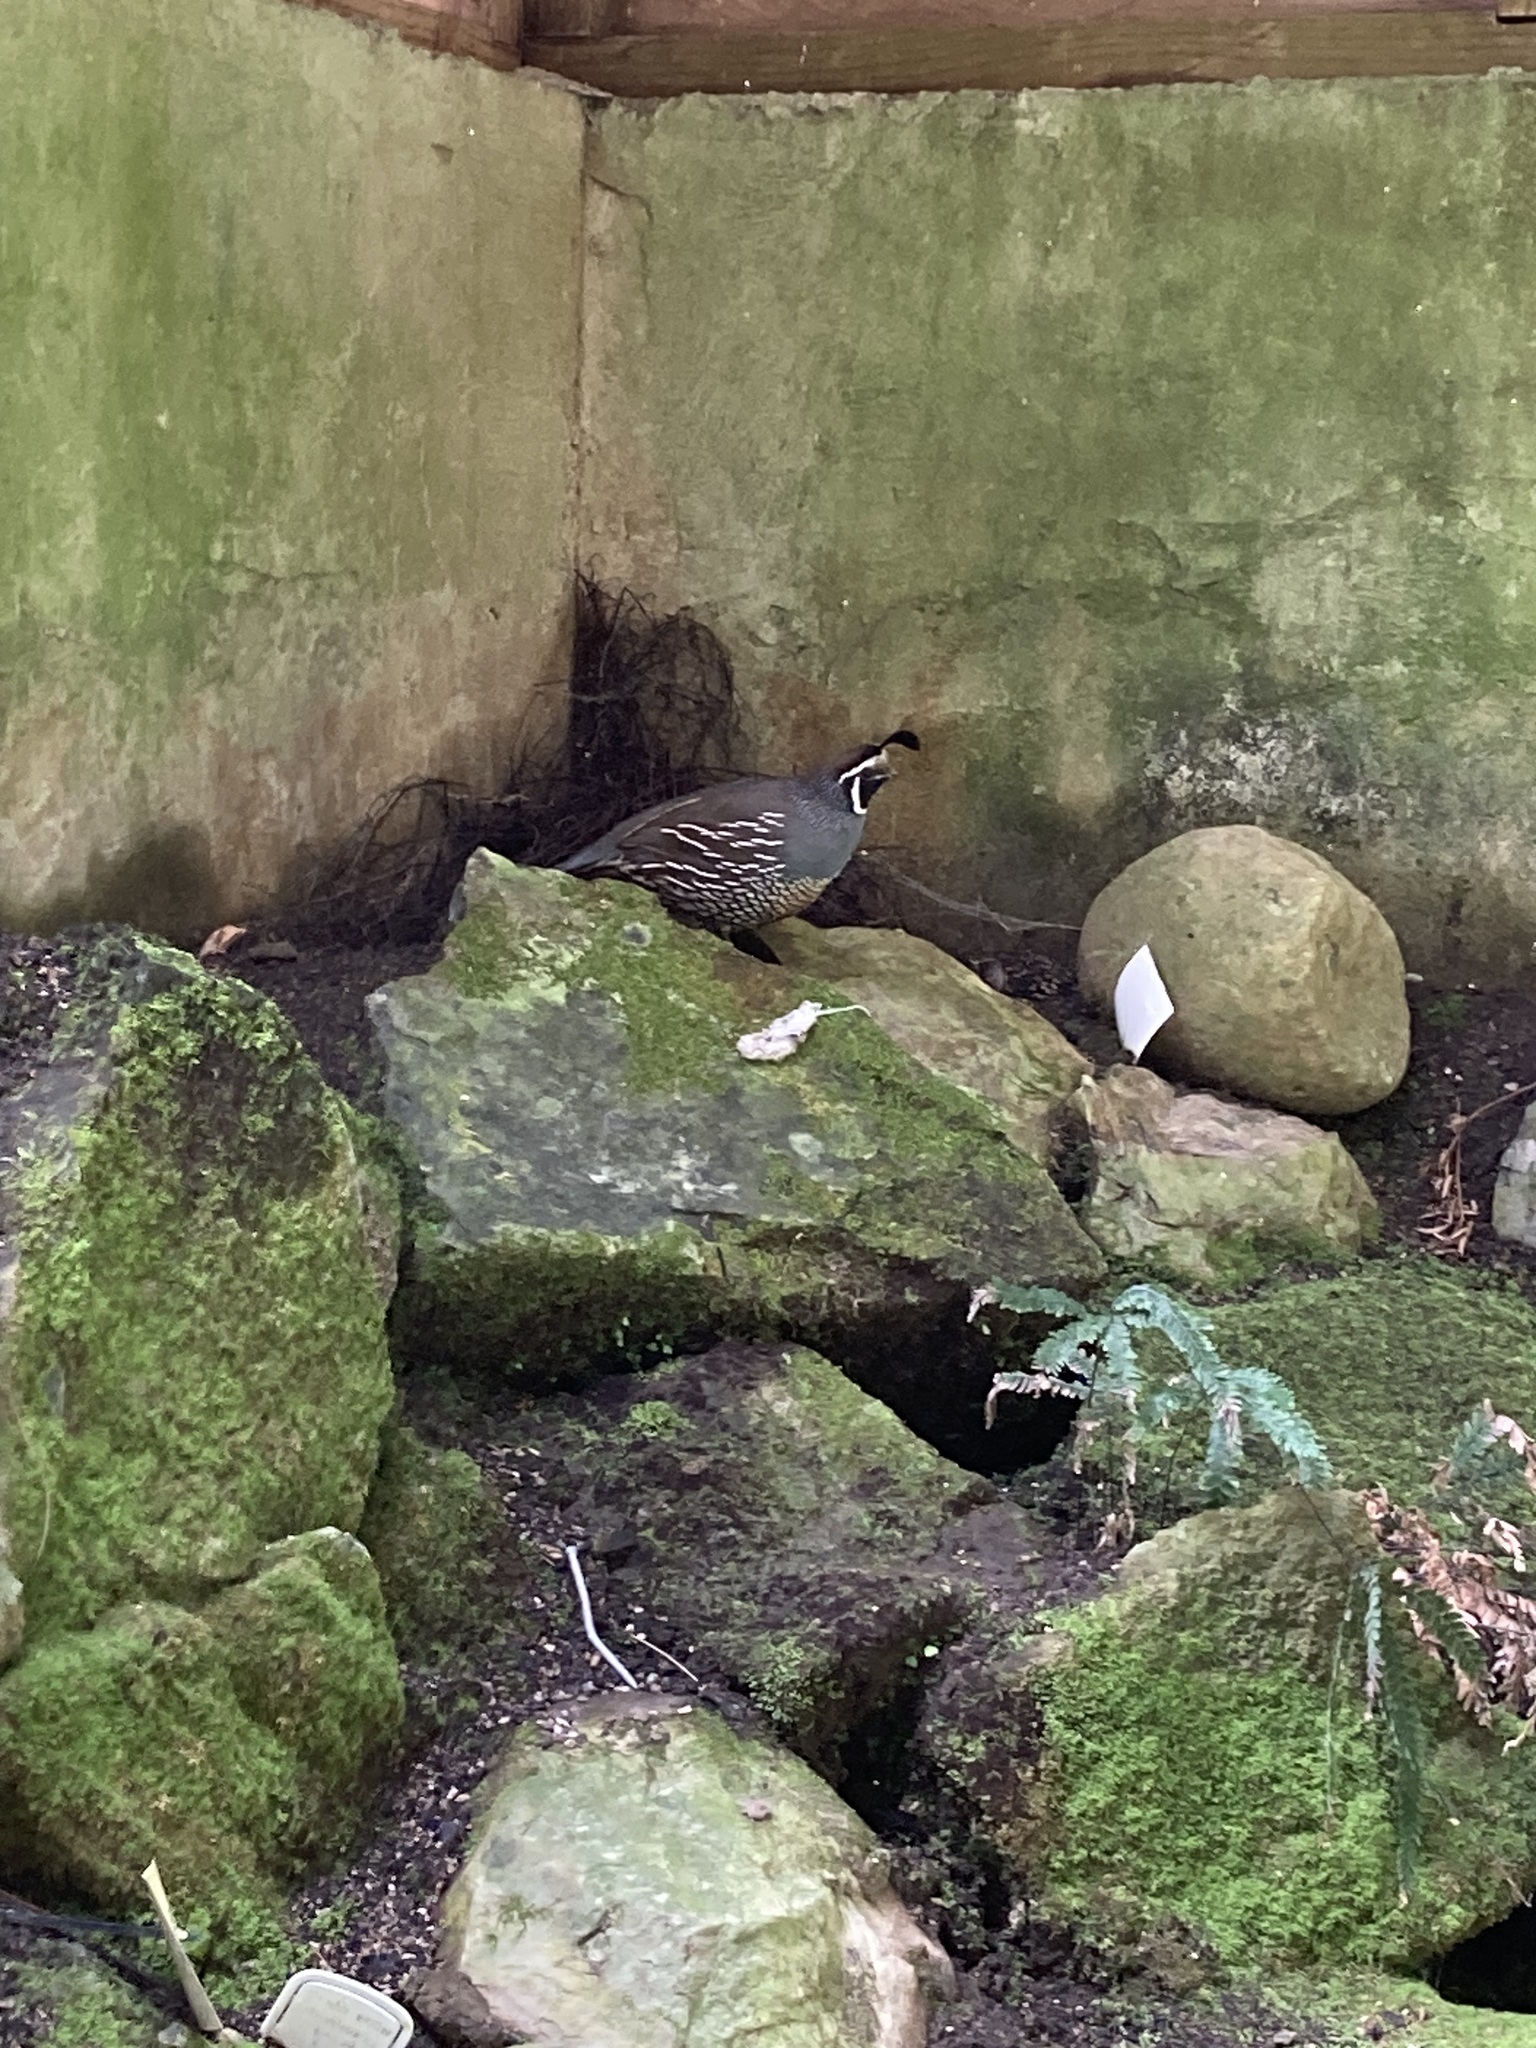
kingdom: Animalia
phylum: Chordata
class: Aves
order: Galliformes
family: Odontophoridae
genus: Callipepla
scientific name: Callipepla californica
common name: California quail
